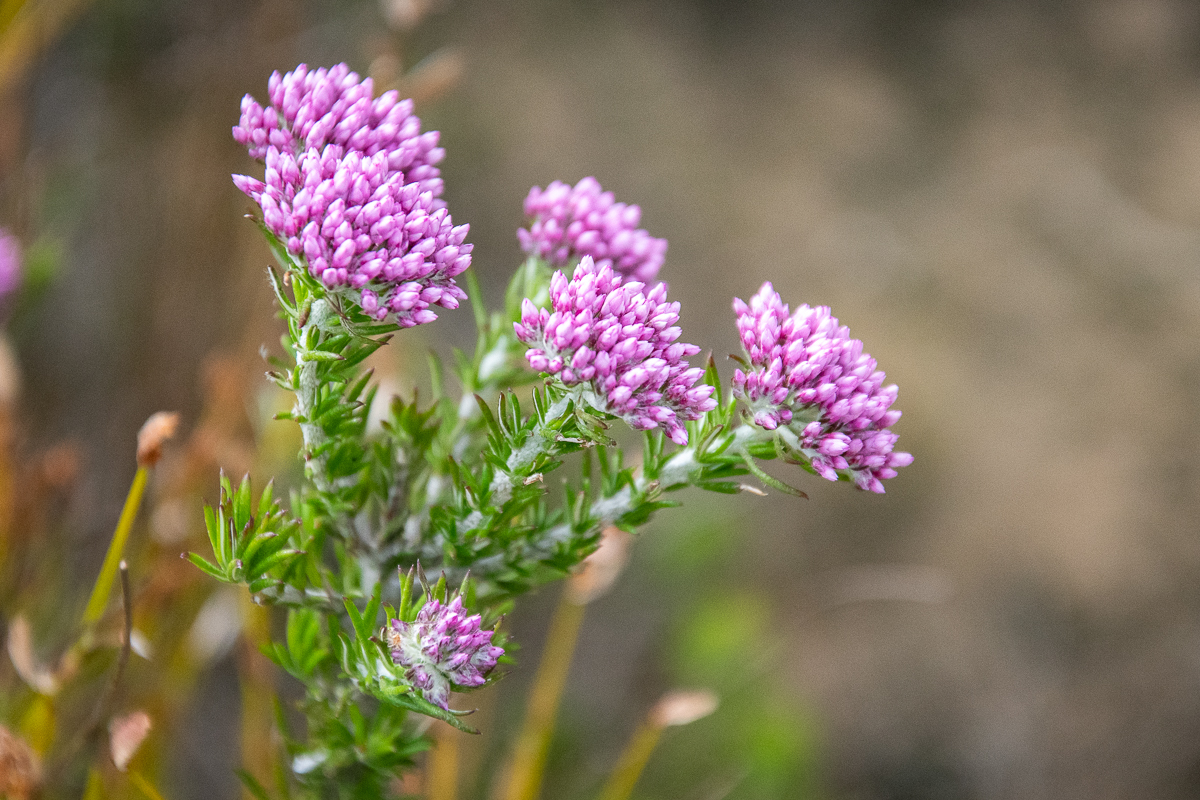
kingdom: Plantae
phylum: Tracheophyta
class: Magnoliopsida
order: Asterales
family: Asteraceae
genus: Metalasia
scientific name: Metalasia erubescens
